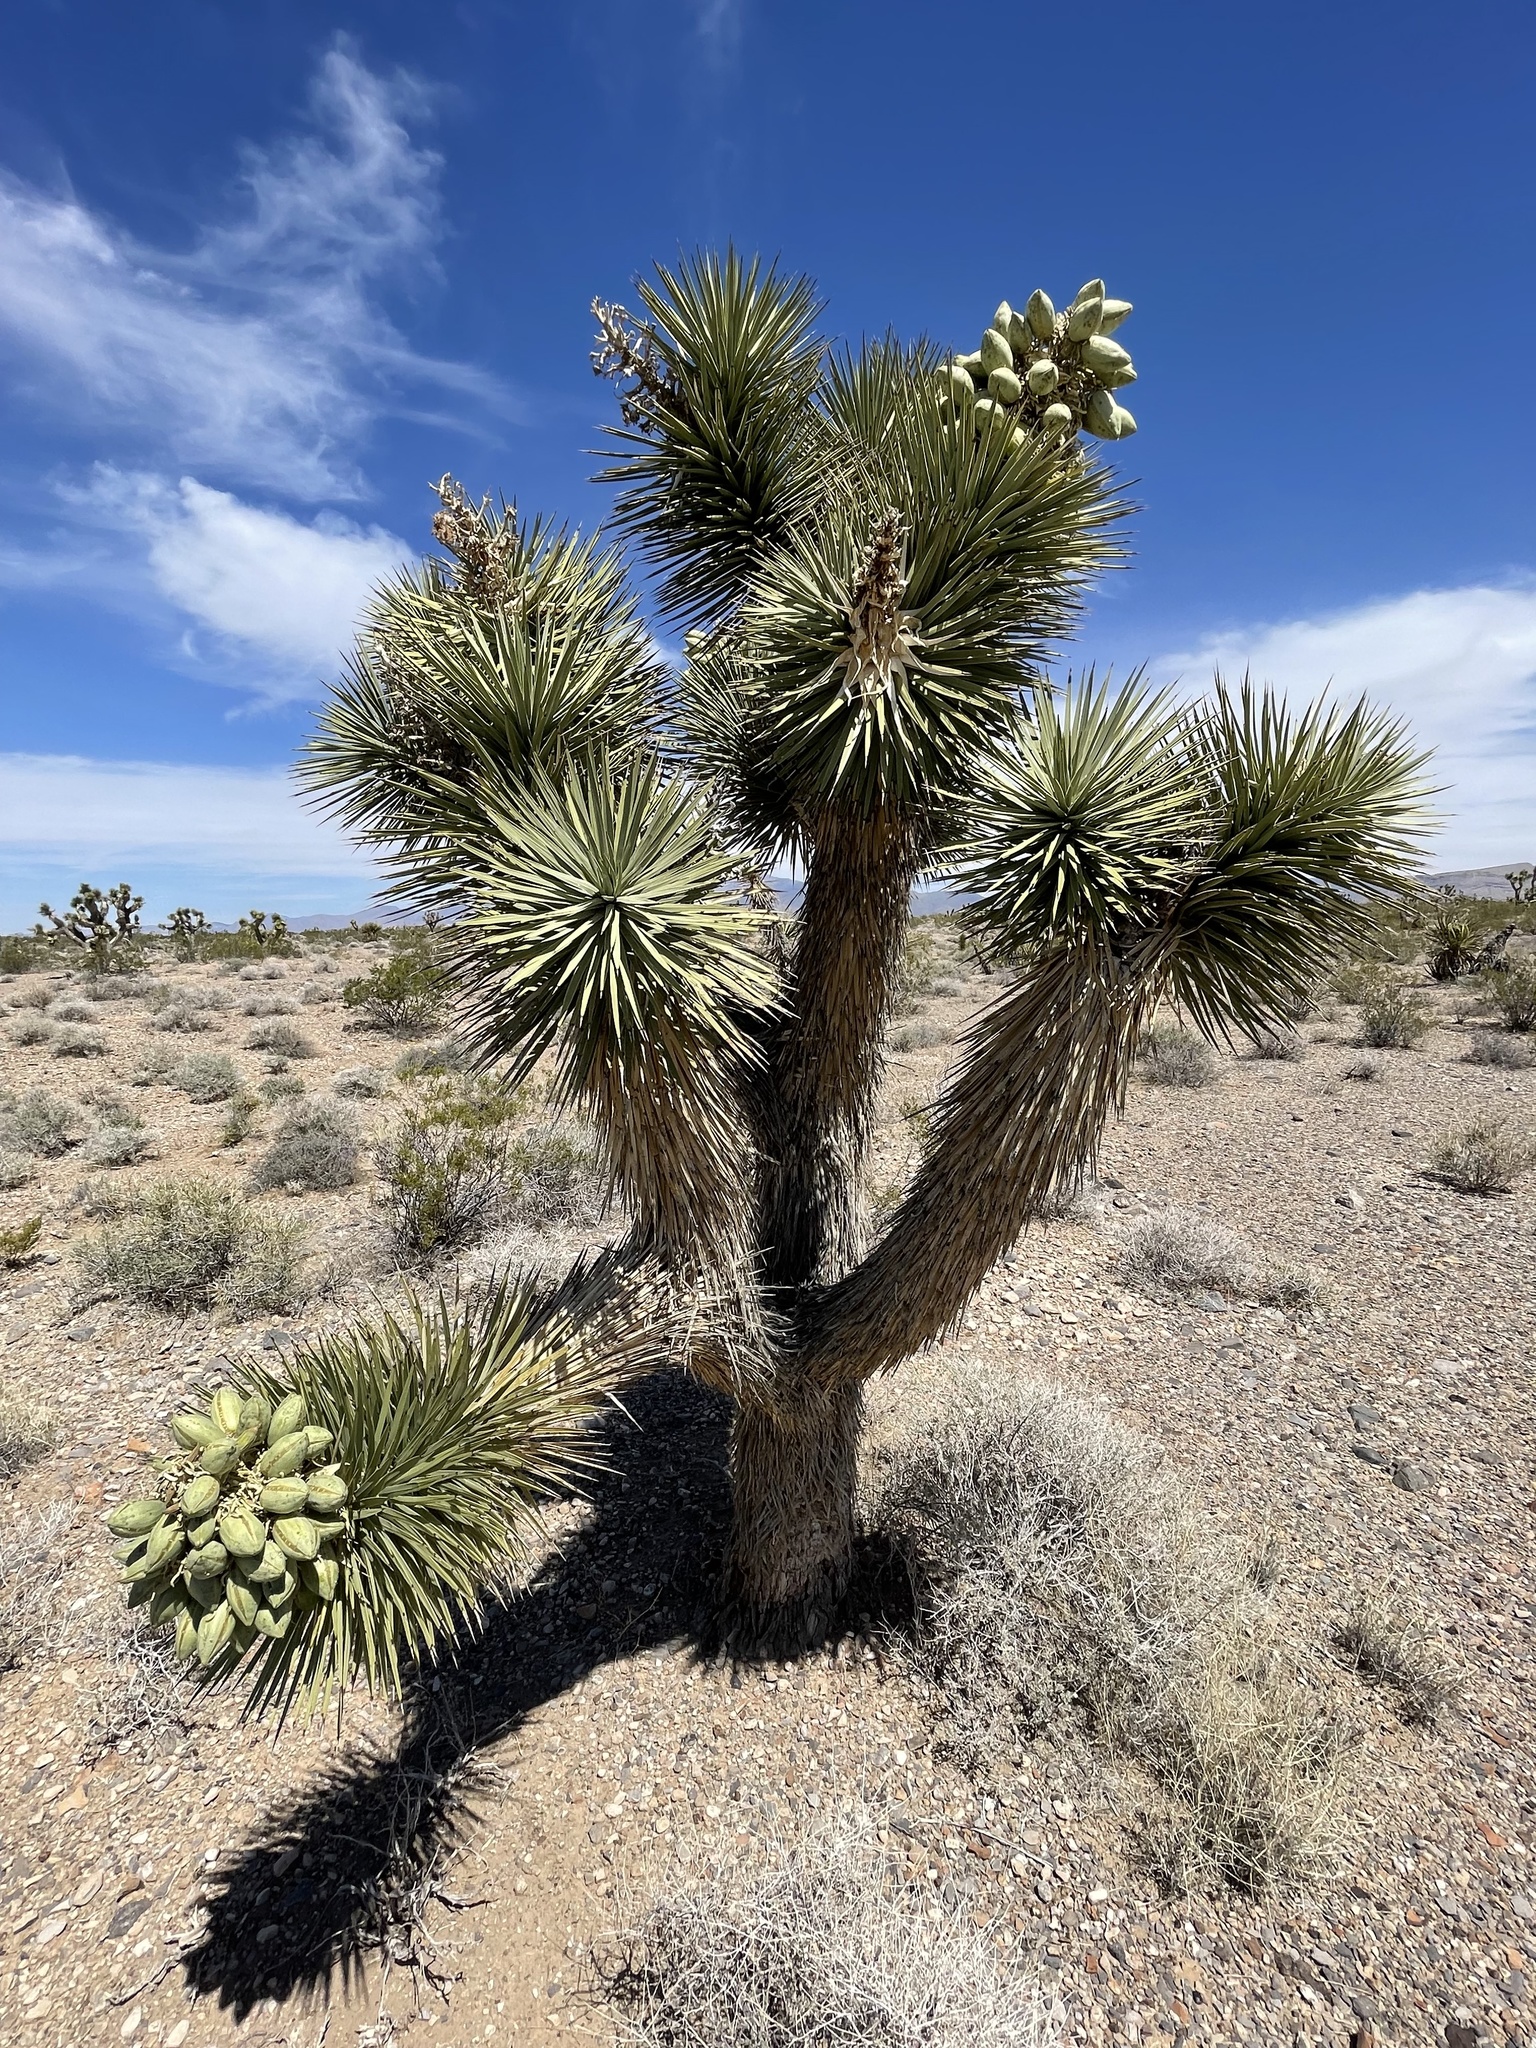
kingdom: Plantae
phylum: Tracheophyta
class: Liliopsida
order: Asparagales
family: Asparagaceae
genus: Yucca
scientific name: Yucca brevifolia
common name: Joshua tree
